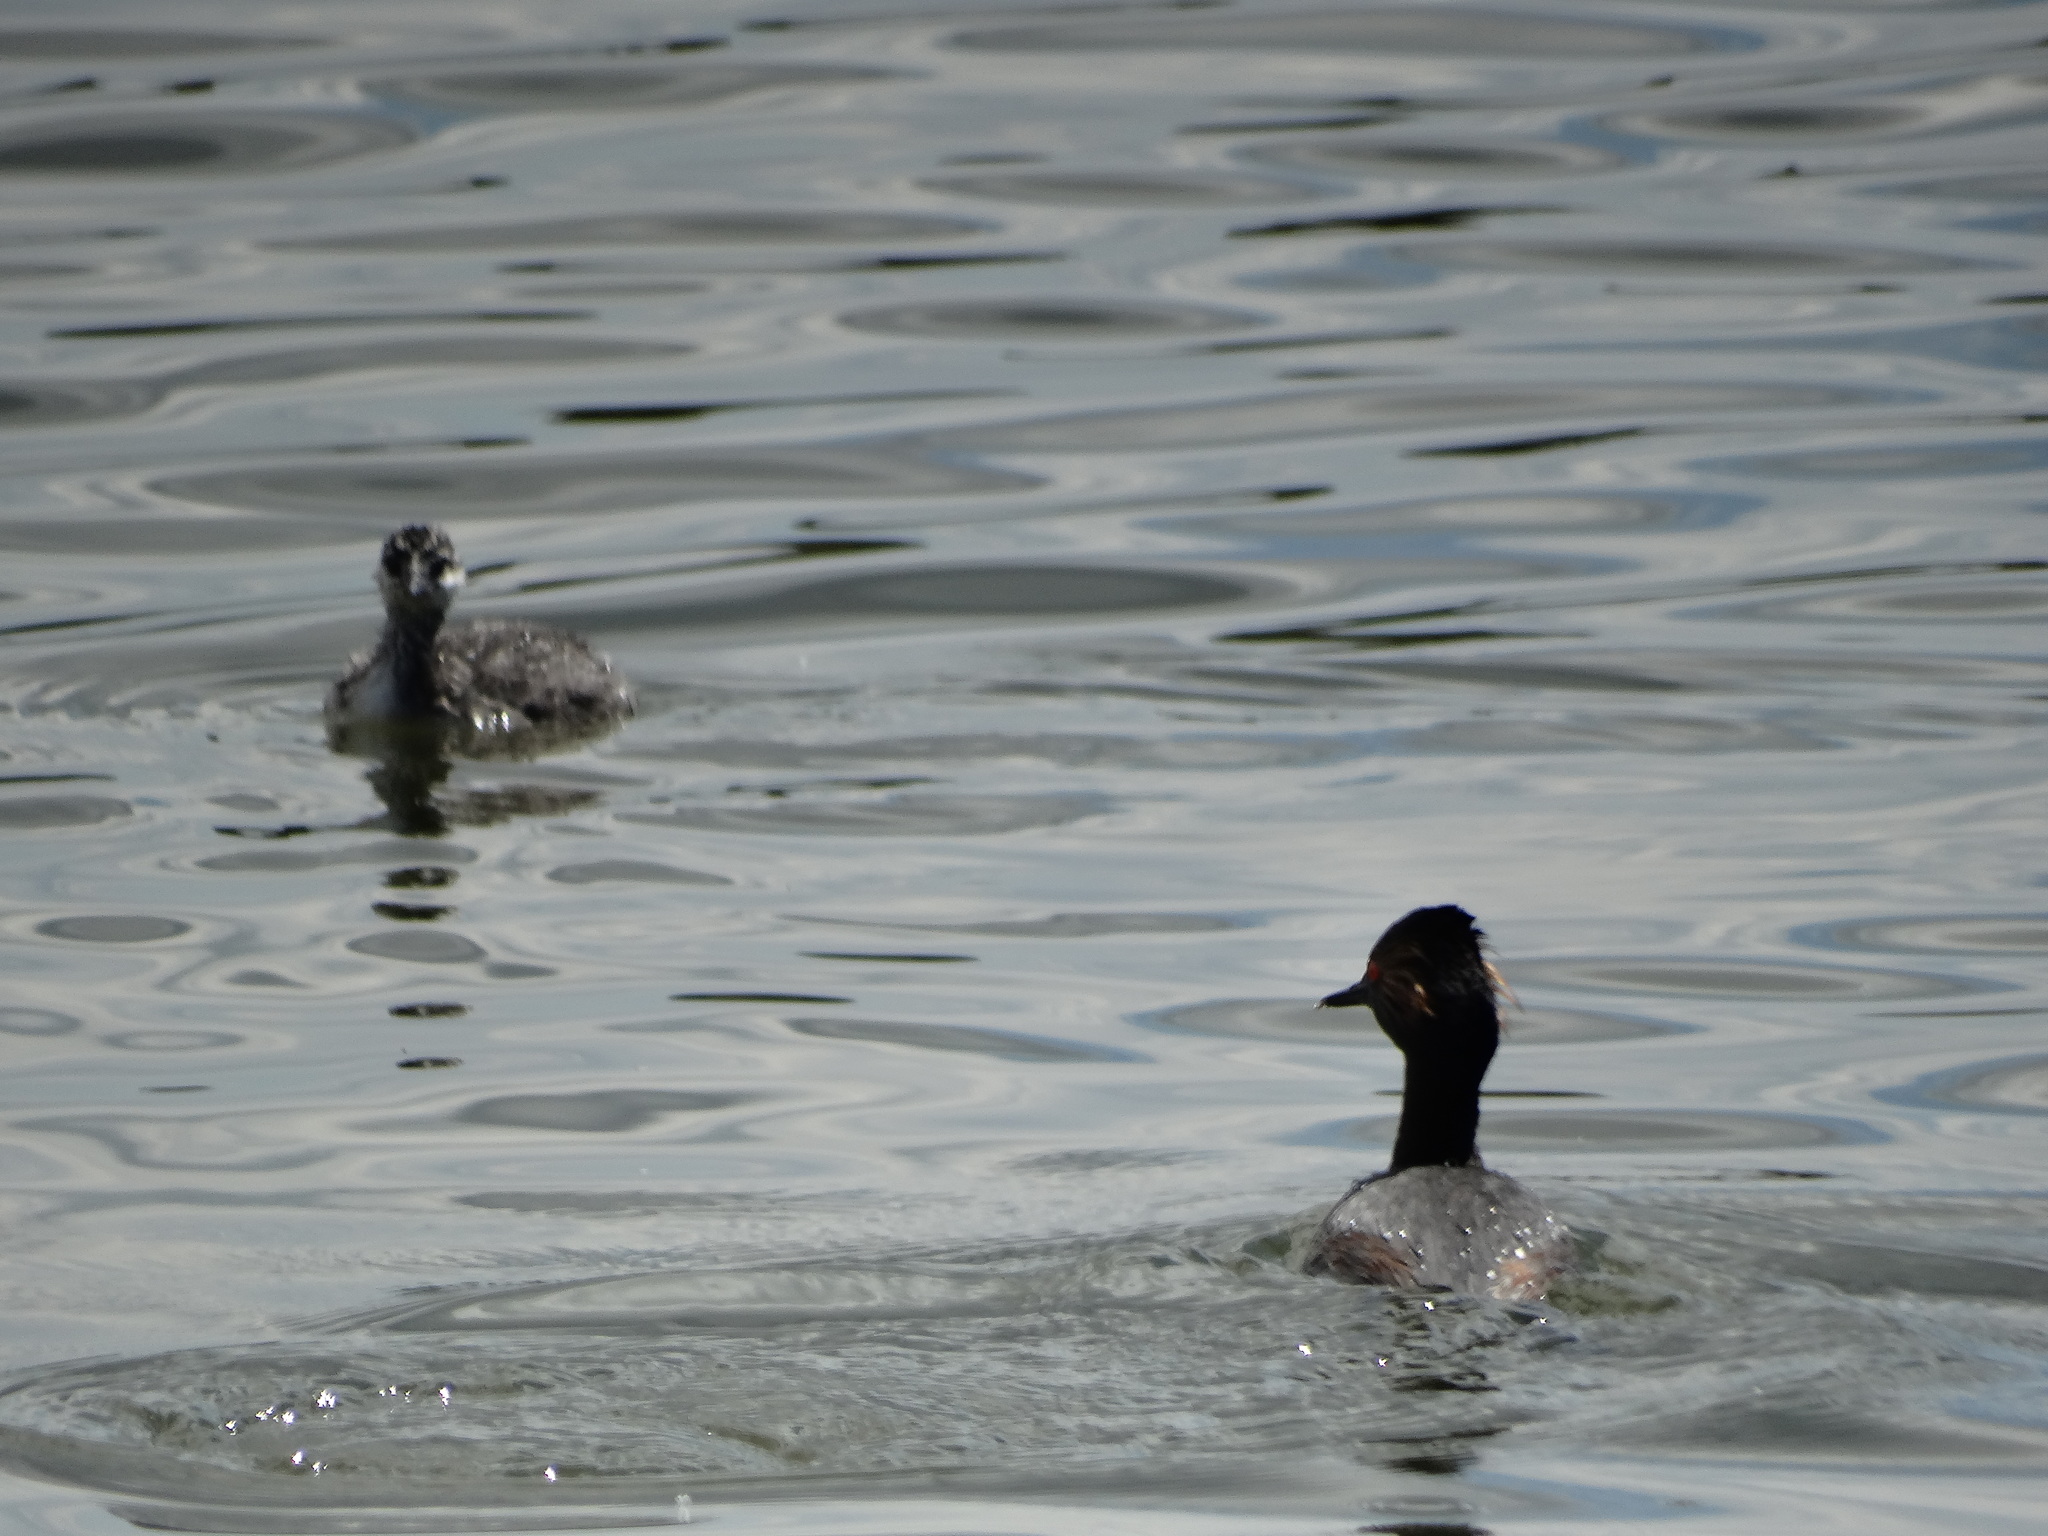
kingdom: Animalia
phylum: Chordata
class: Aves
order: Podicipediformes
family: Podicipedidae
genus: Podiceps
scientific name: Podiceps nigricollis
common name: Black-necked grebe
